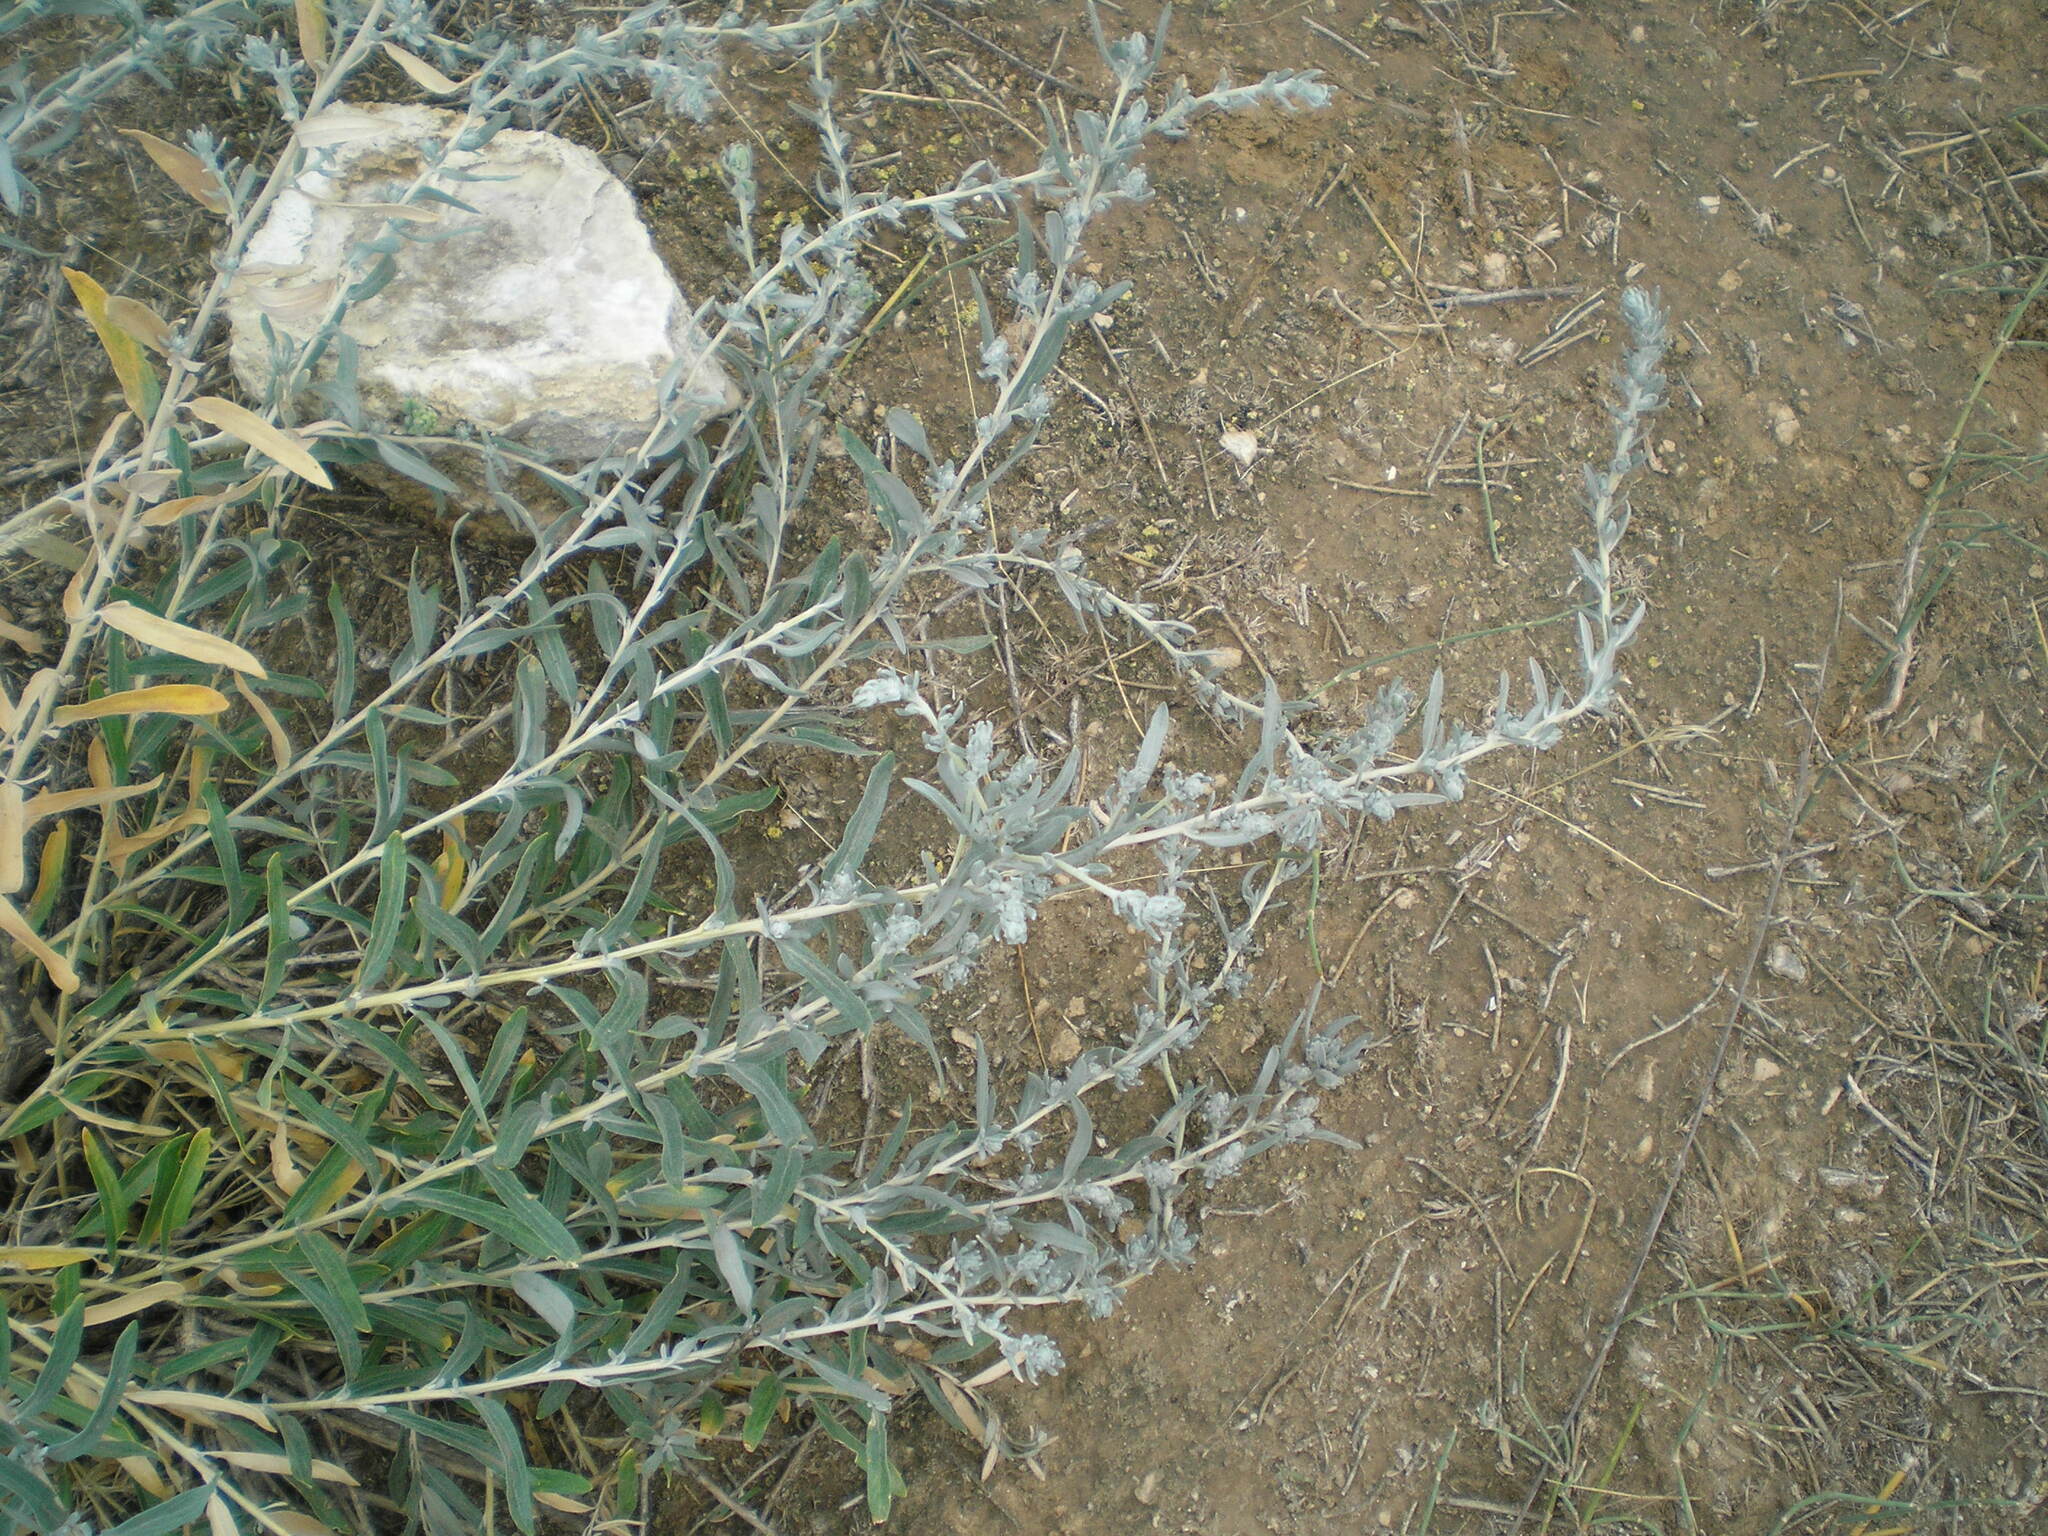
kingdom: Plantae
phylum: Tracheophyta
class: Magnoliopsida
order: Caryophyllales
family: Amaranthaceae
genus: Krascheninnikovia
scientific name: Krascheninnikovia ceratoides
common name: Pamirian winterfat
